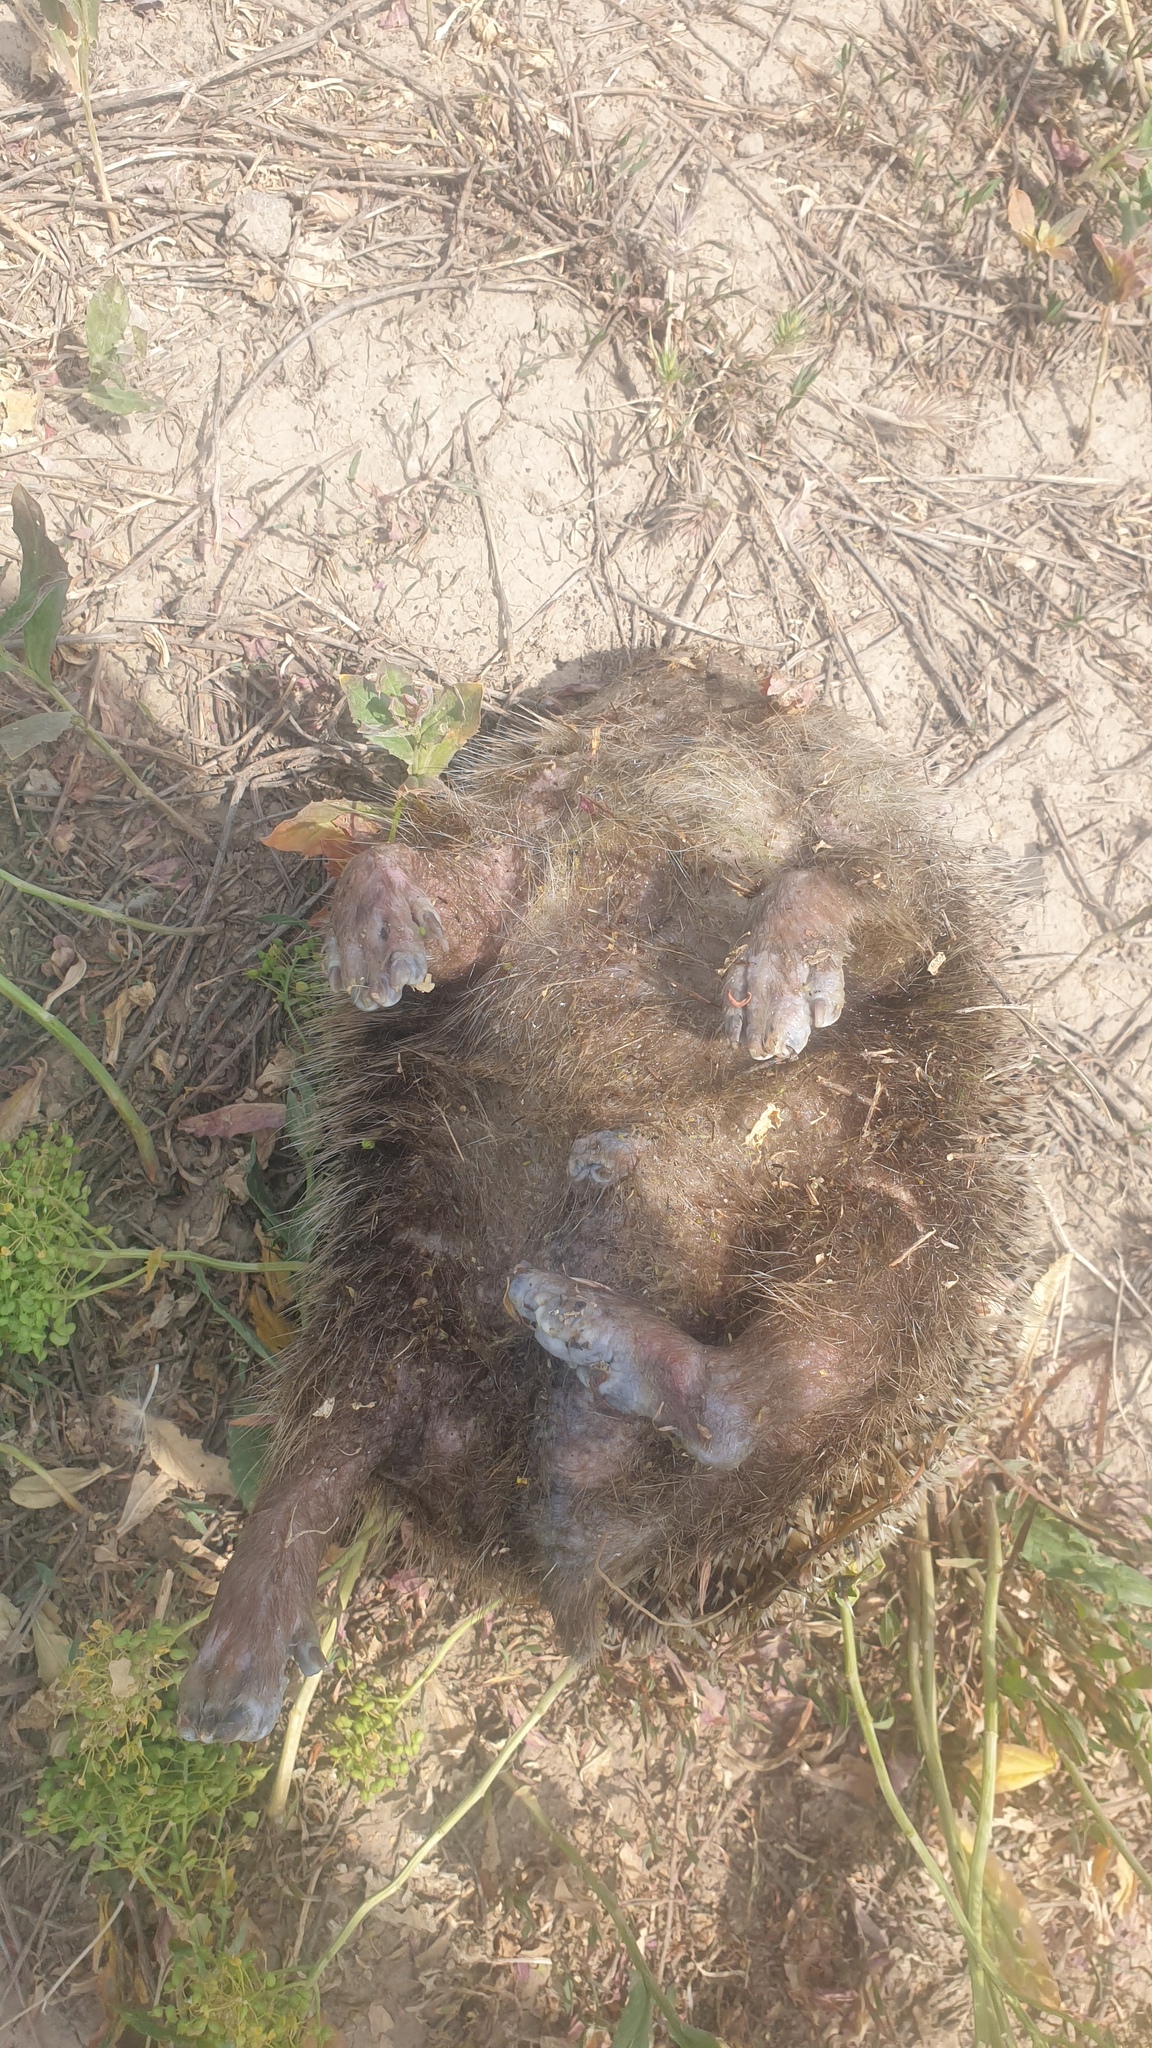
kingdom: Animalia
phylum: Chordata
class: Mammalia
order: Erinaceomorpha
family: Erinaceidae
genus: Erinaceus
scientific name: Erinaceus concolor
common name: Southern white-breasted hedgehog
